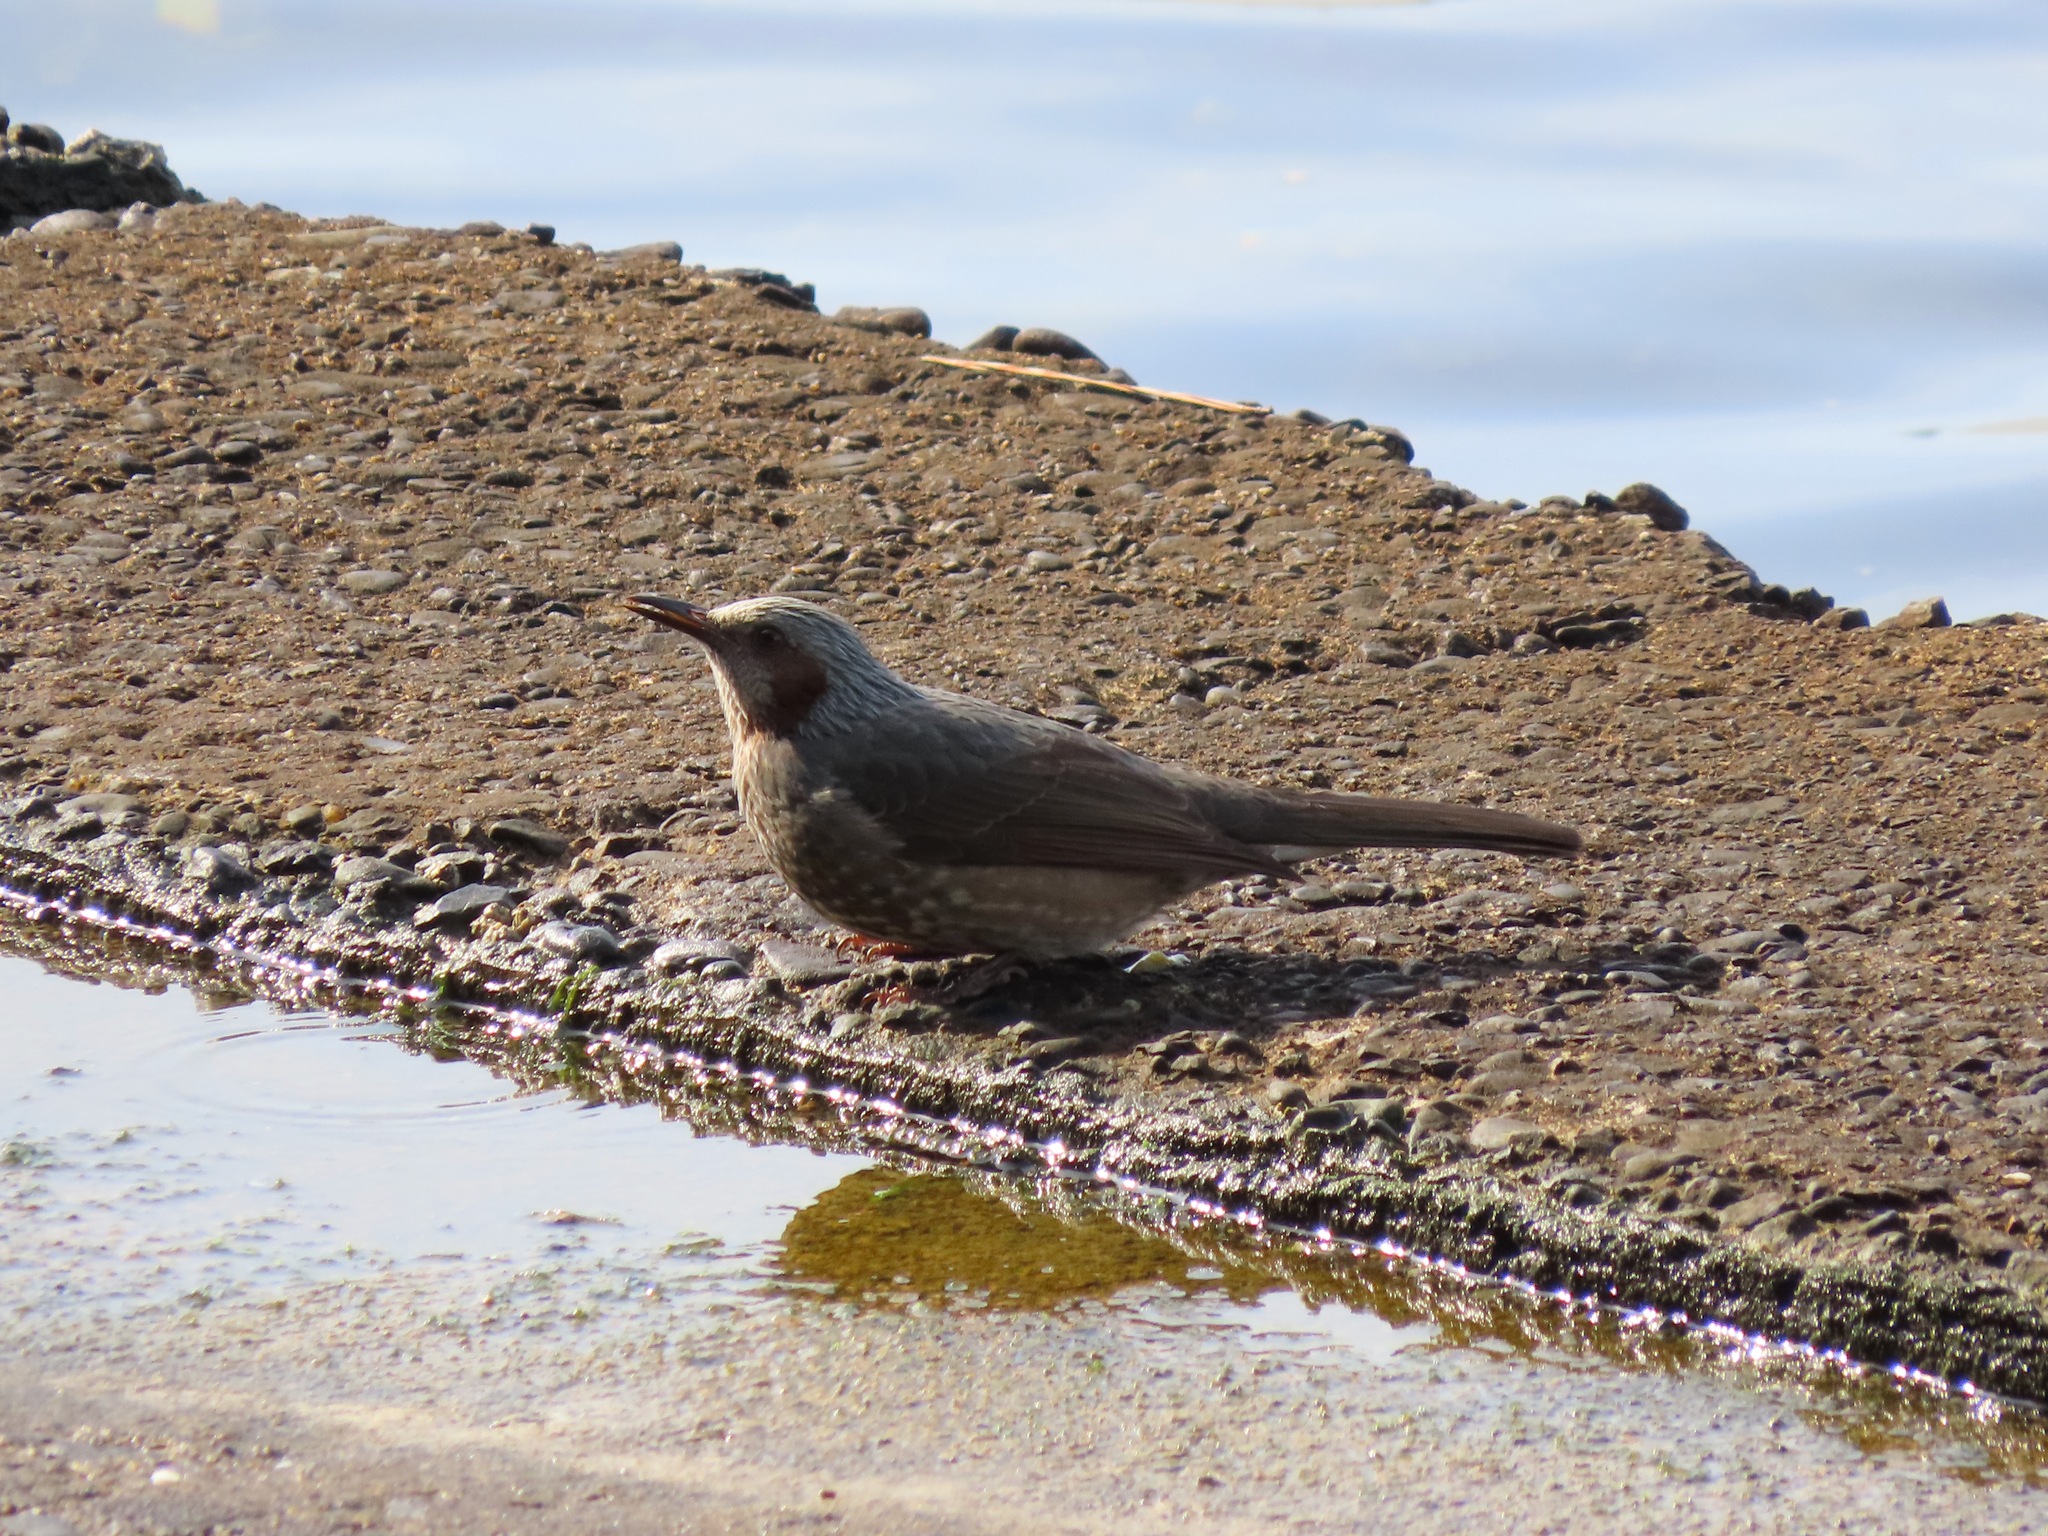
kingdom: Animalia
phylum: Chordata
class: Aves
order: Passeriformes
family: Pycnonotidae
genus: Hypsipetes
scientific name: Hypsipetes amaurotis
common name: Brown-eared bulbul
